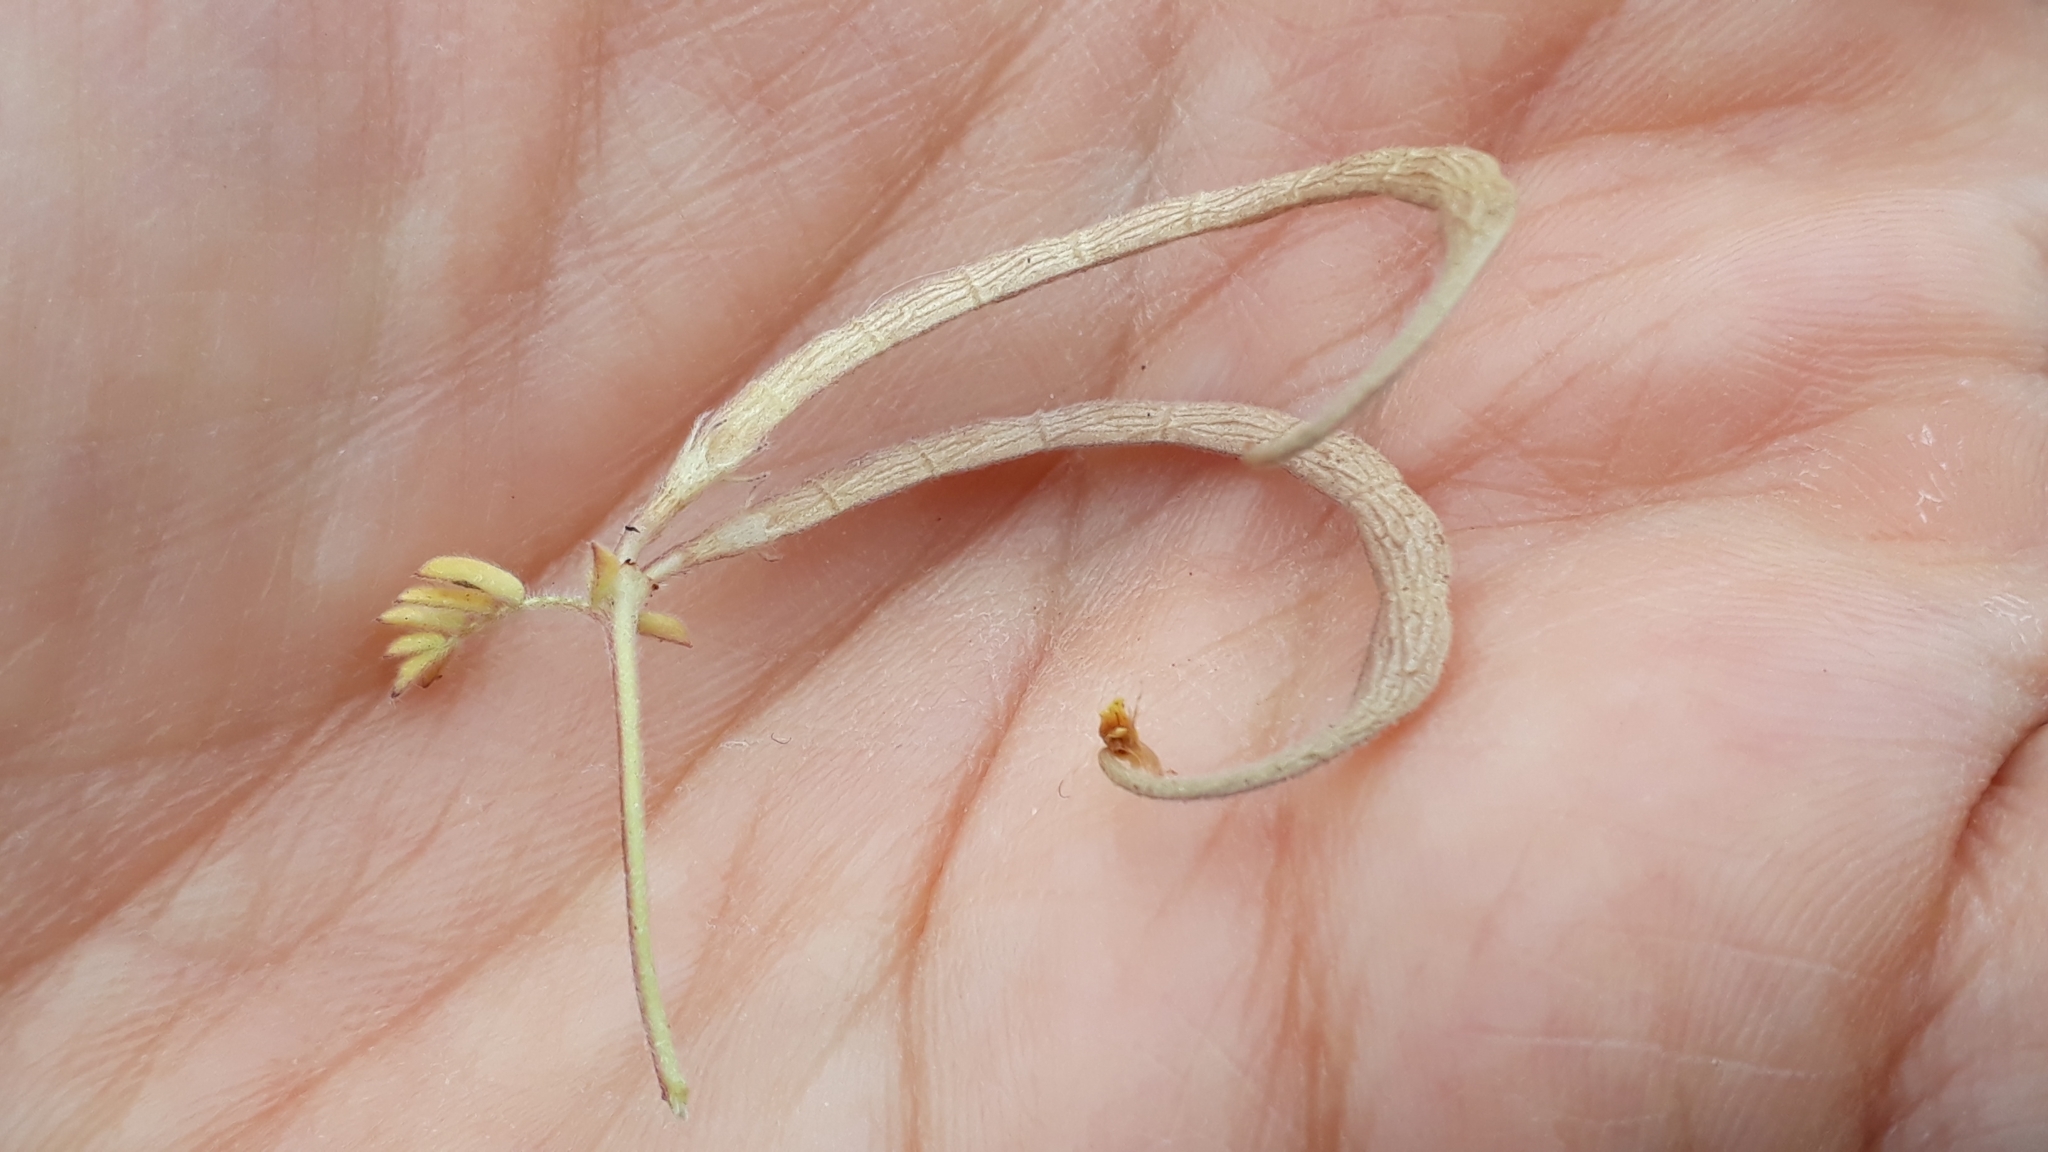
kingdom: Plantae
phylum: Tracheophyta
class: Magnoliopsida
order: Fabales
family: Fabaceae
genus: Ornithopus
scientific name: Ornithopus compressus
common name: Yellow serradella
